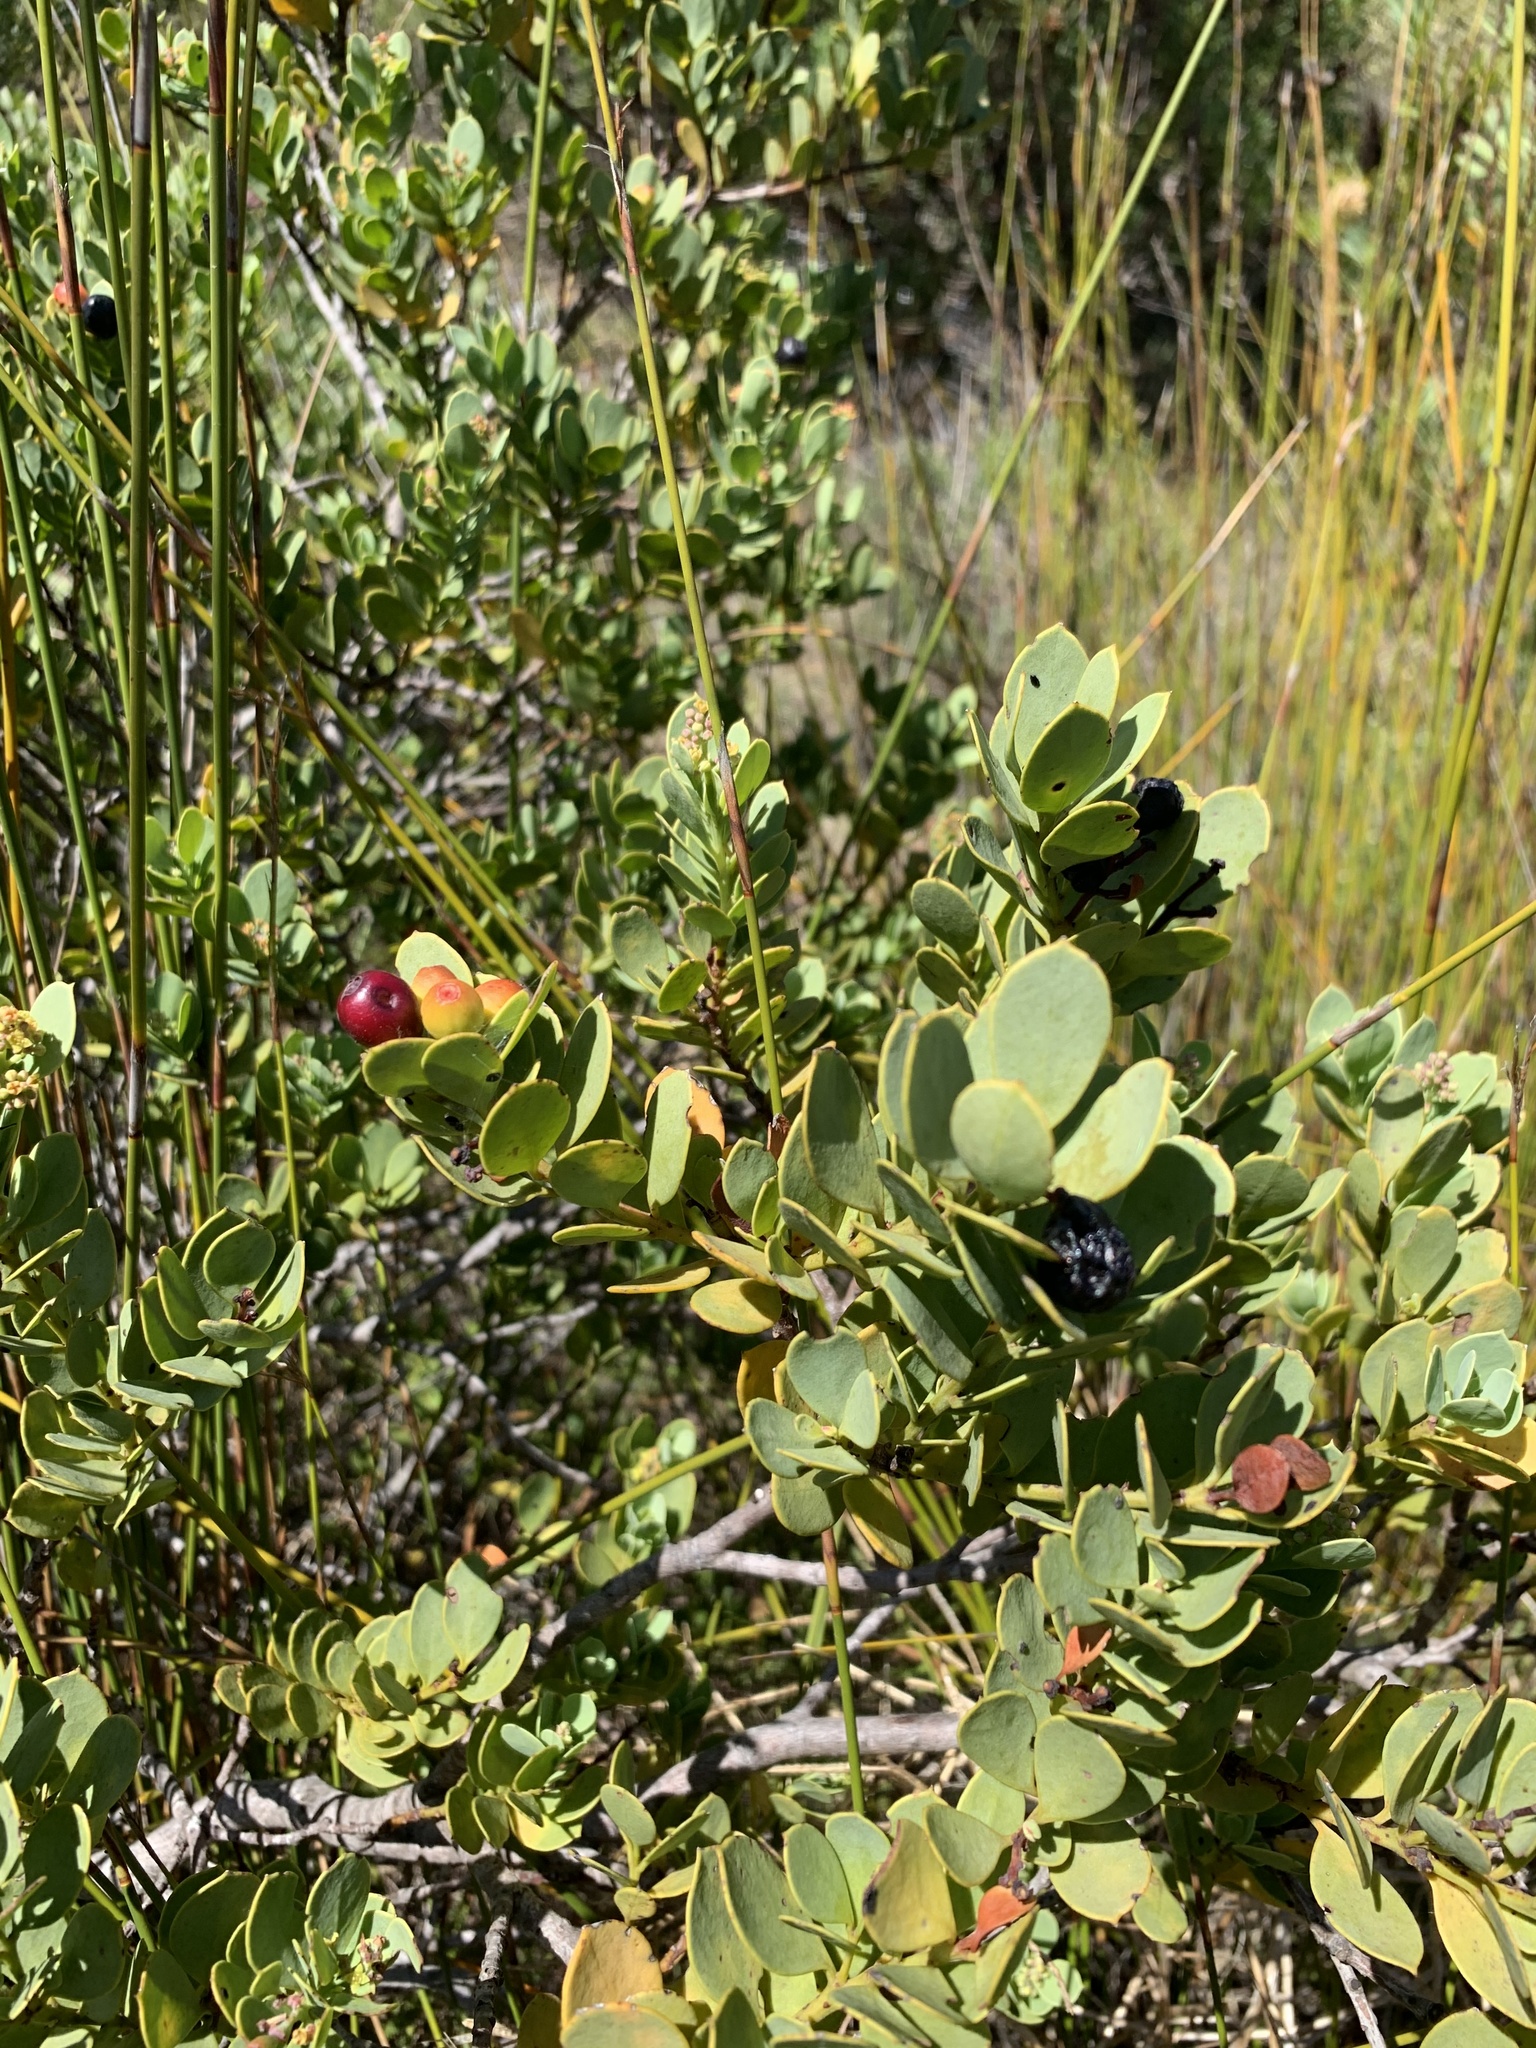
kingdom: Plantae
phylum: Tracheophyta
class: Magnoliopsida
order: Santalales
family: Santalaceae
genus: Osyris
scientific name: Osyris compressa
